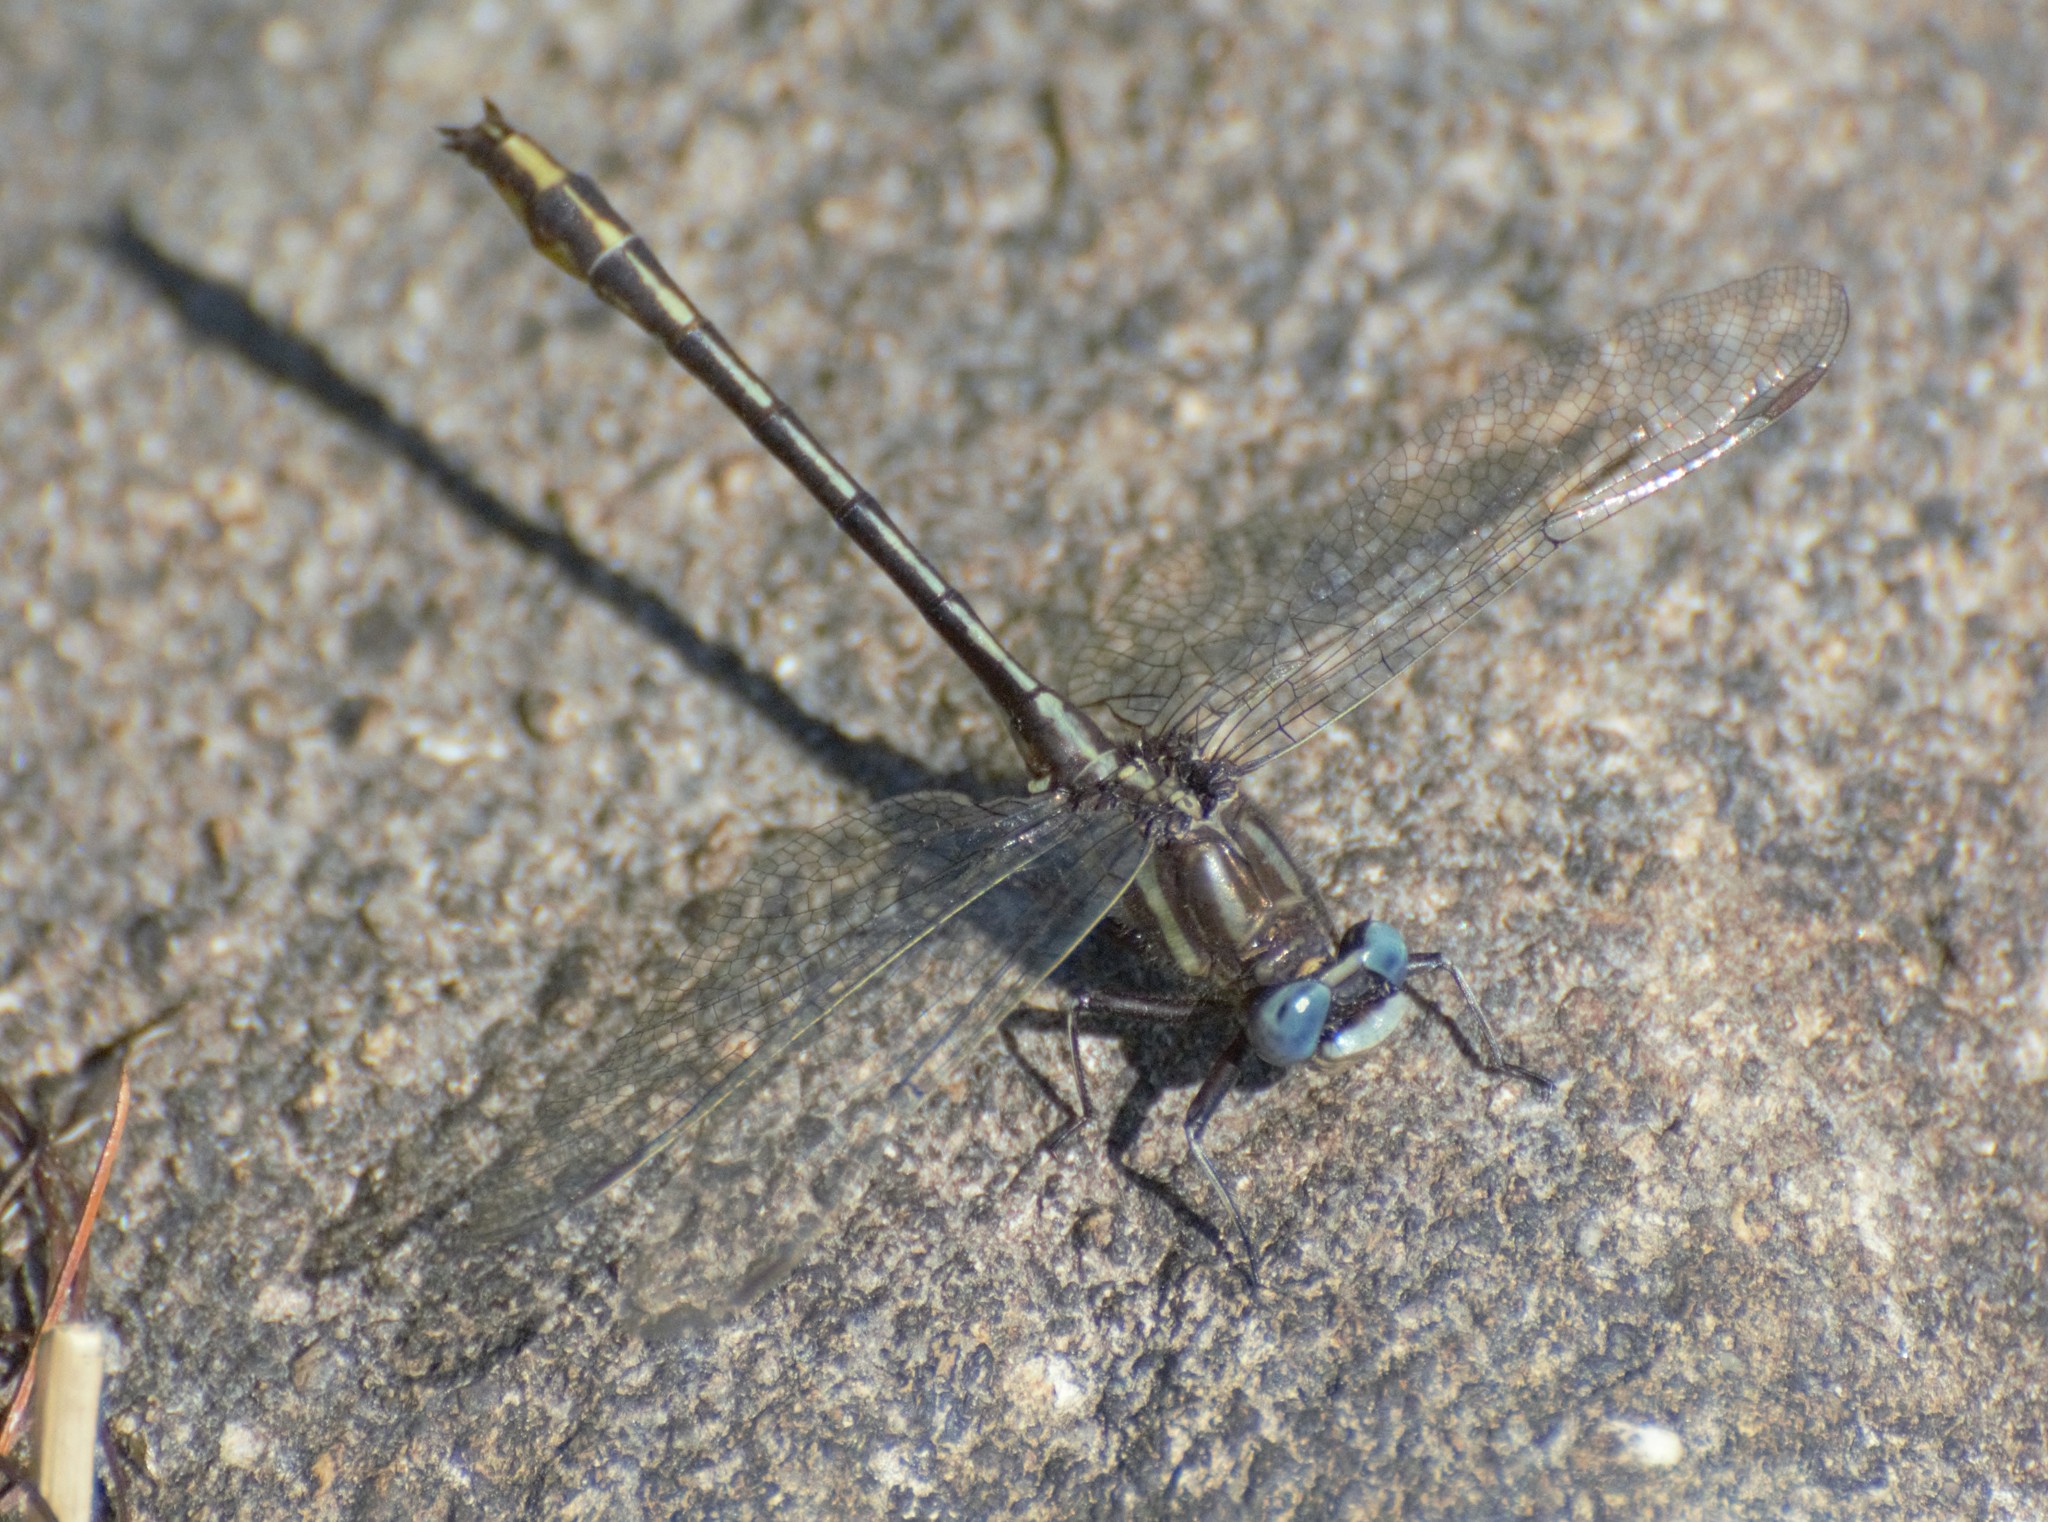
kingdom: Animalia
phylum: Arthropoda
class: Insecta
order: Odonata
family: Gomphidae
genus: Phanogomphus
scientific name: Phanogomphus exilis
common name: Lancet clubtail
